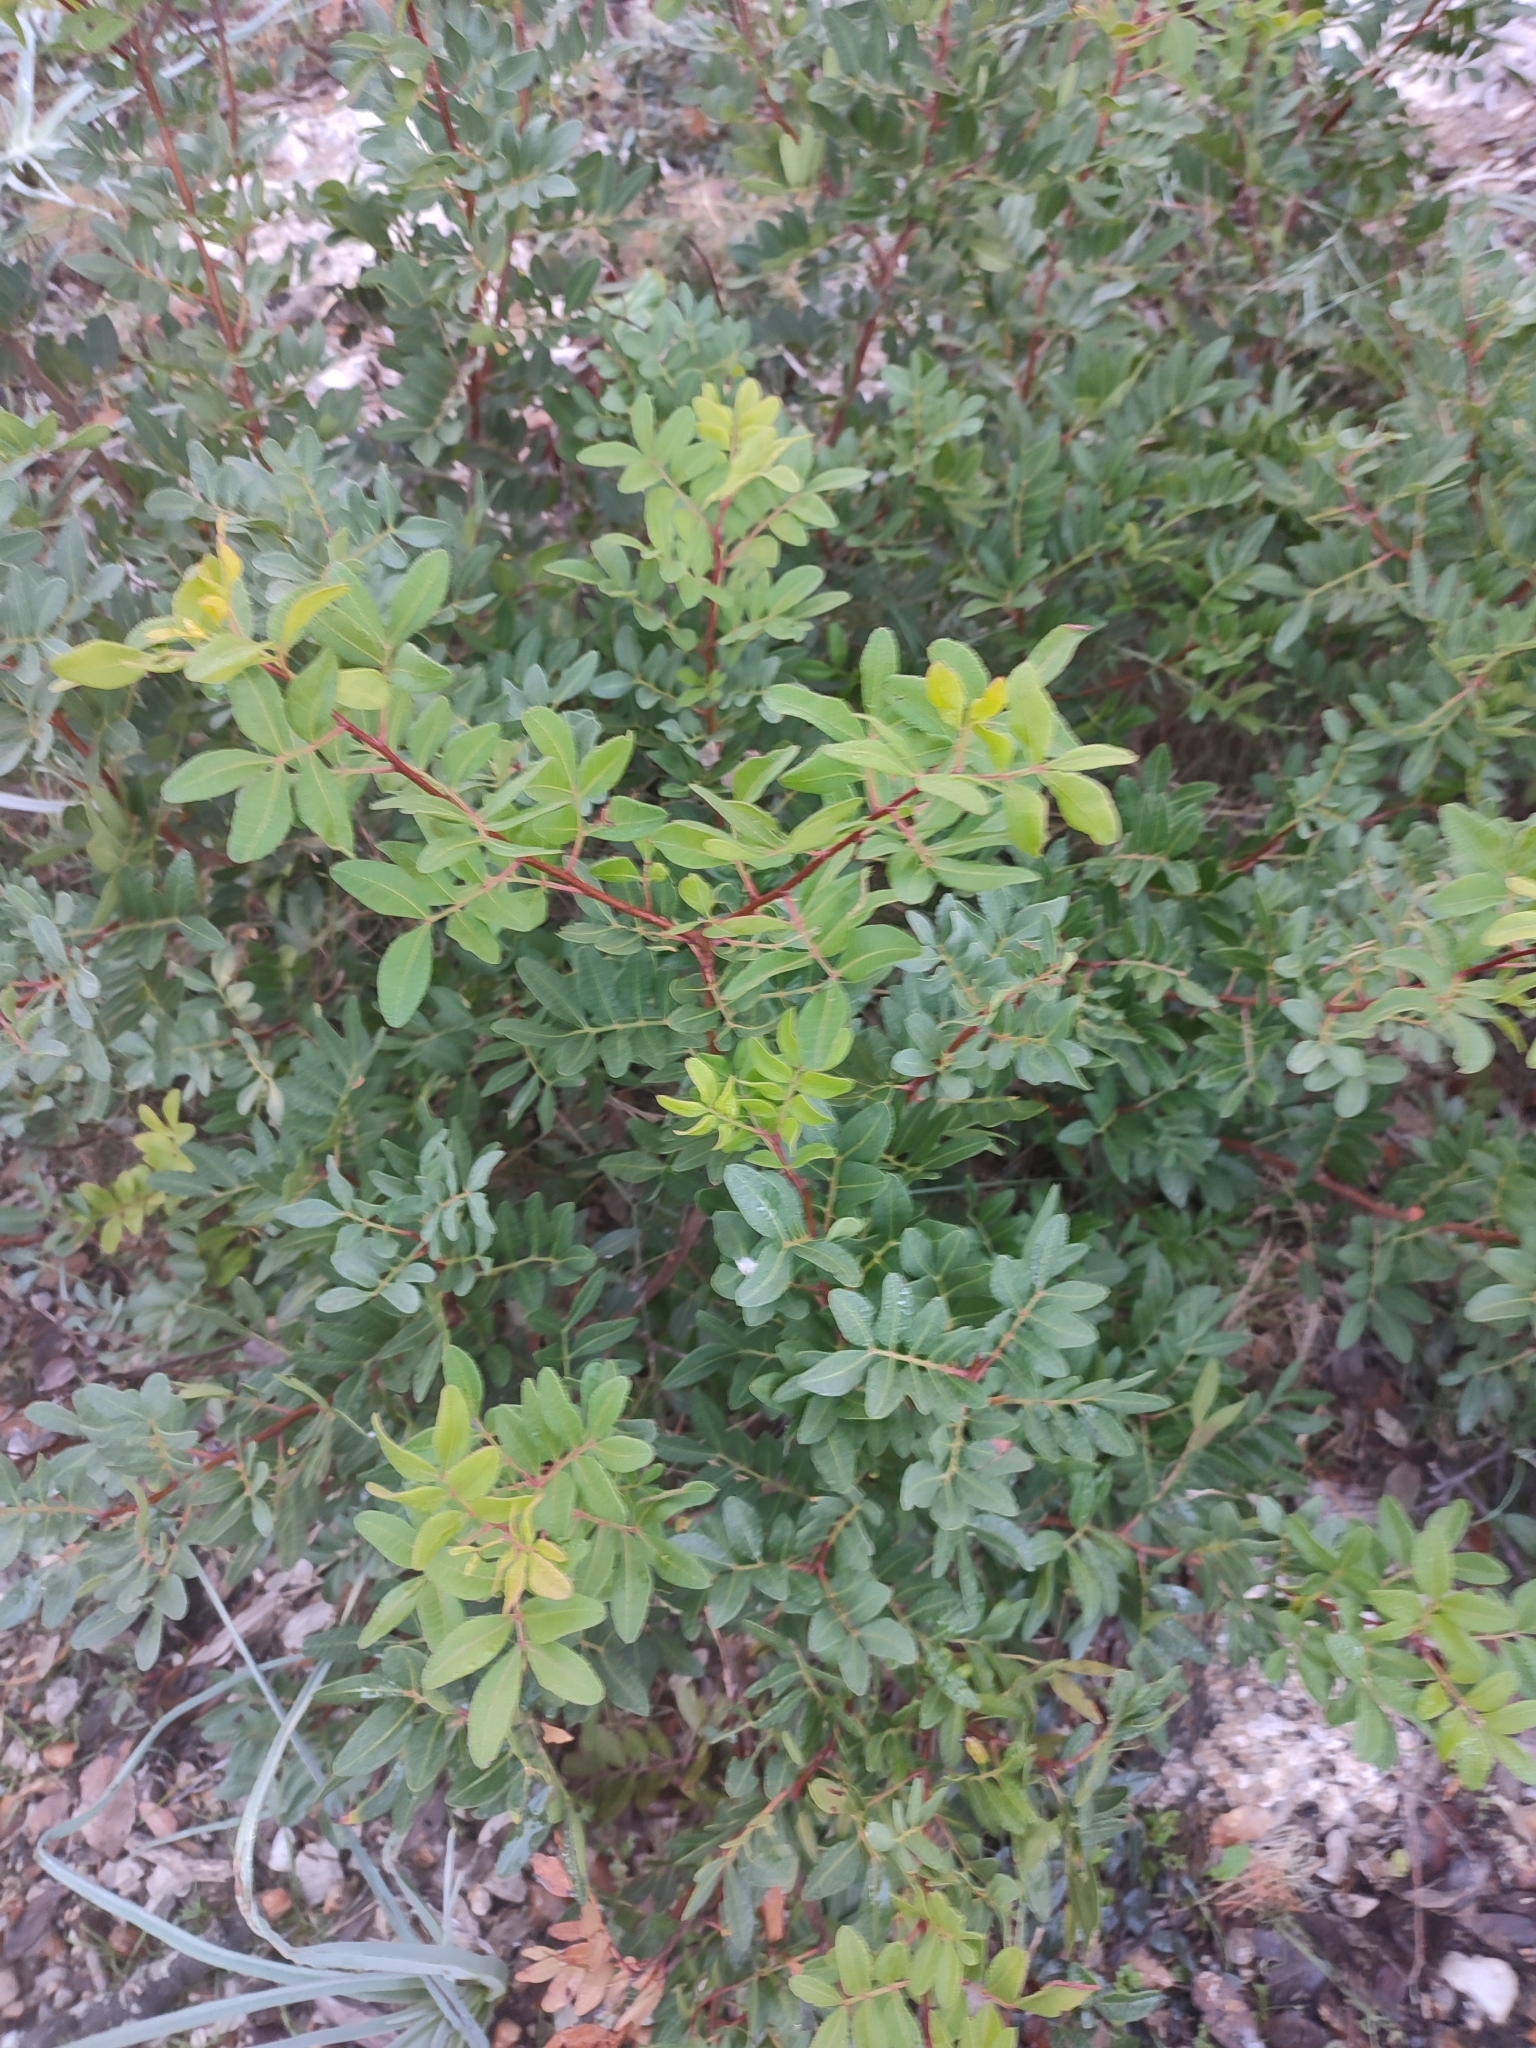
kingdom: Plantae
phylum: Tracheophyta
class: Magnoliopsida
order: Sapindales
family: Anacardiaceae
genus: Pistacia
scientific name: Pistacia lentiscus
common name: Lentisk
